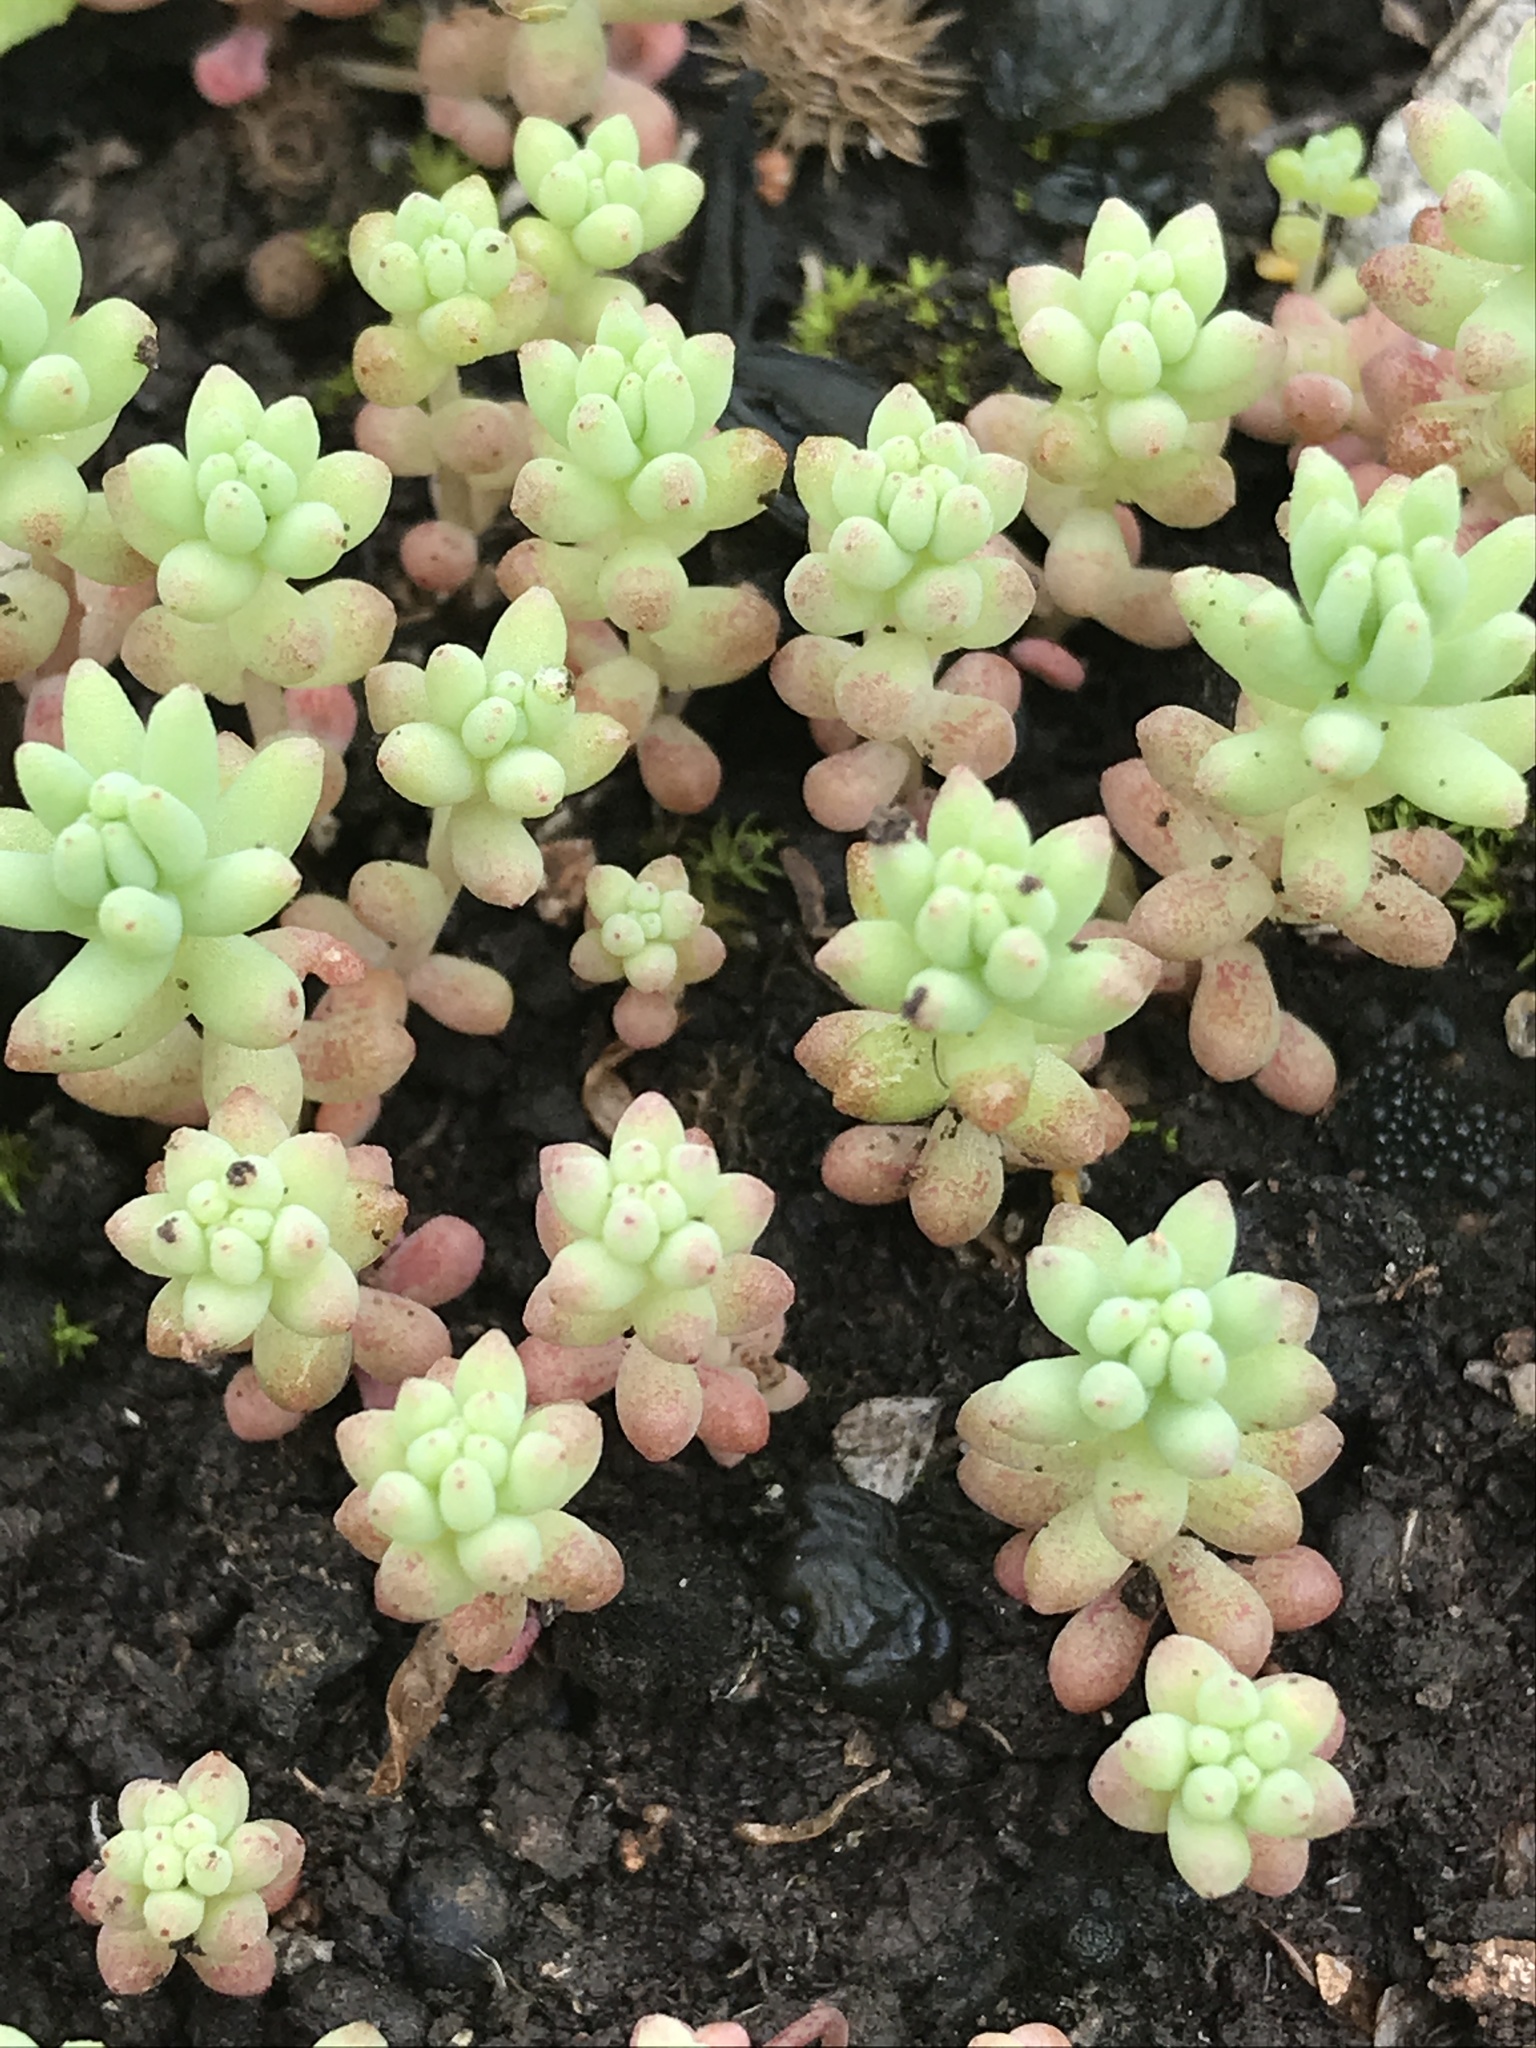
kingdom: Plantae
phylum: Tracheophyta
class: Magnoliopsida
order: Saxifragales
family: Crassulaceae
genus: Sedum
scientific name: Sedum nuttallii
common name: Yellow stonecrop
